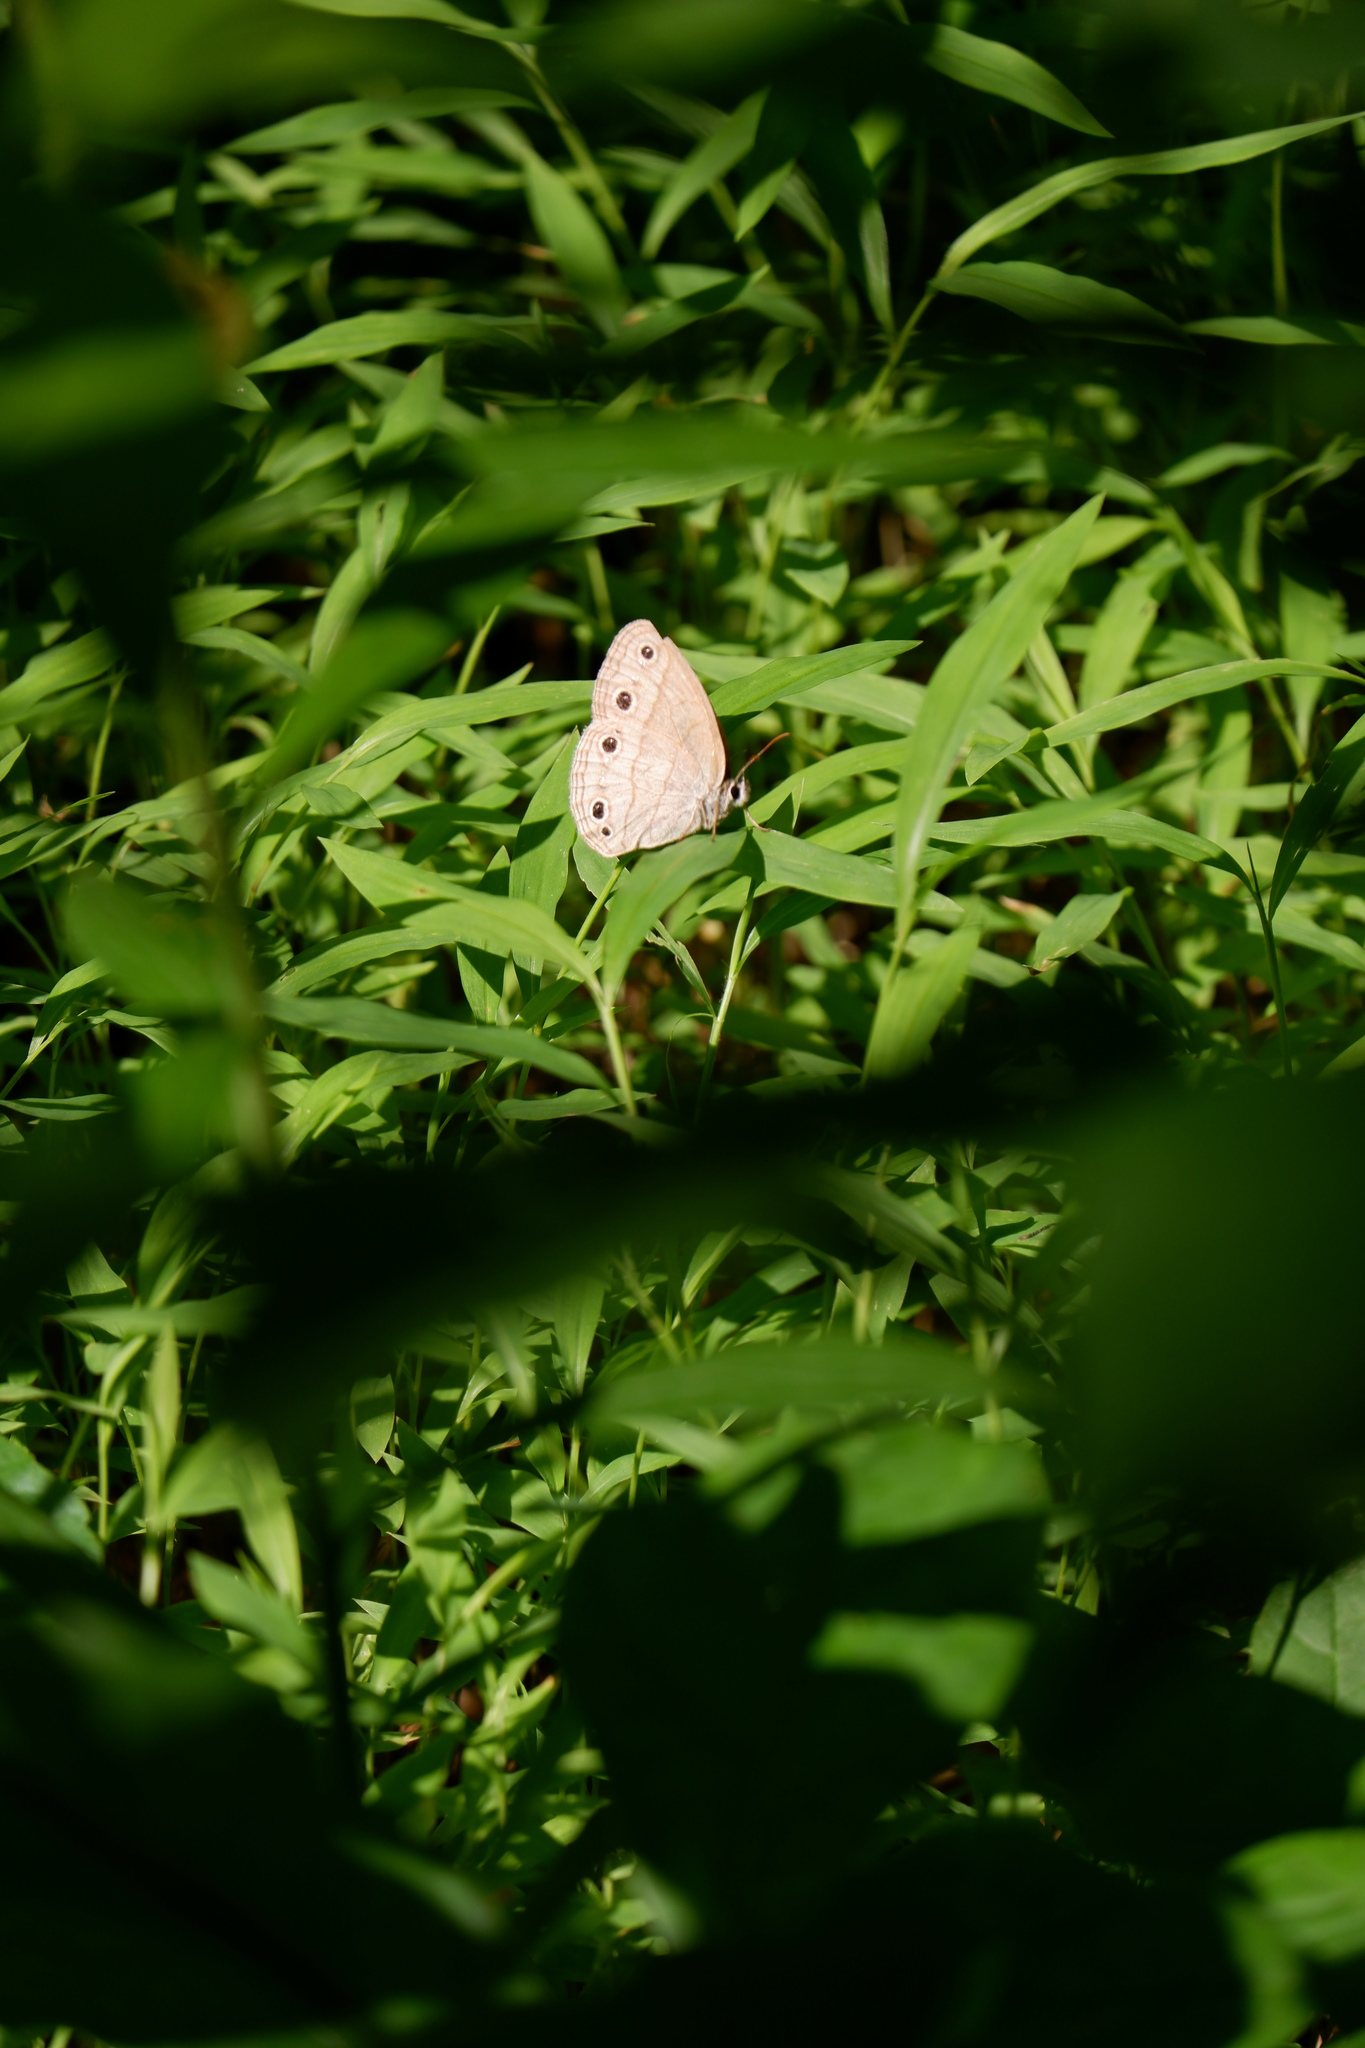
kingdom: Animalia
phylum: Arthropoda
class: Insecta
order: Lepidoptera
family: Nymphalidae
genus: Euptychia
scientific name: Euptychia cymela
